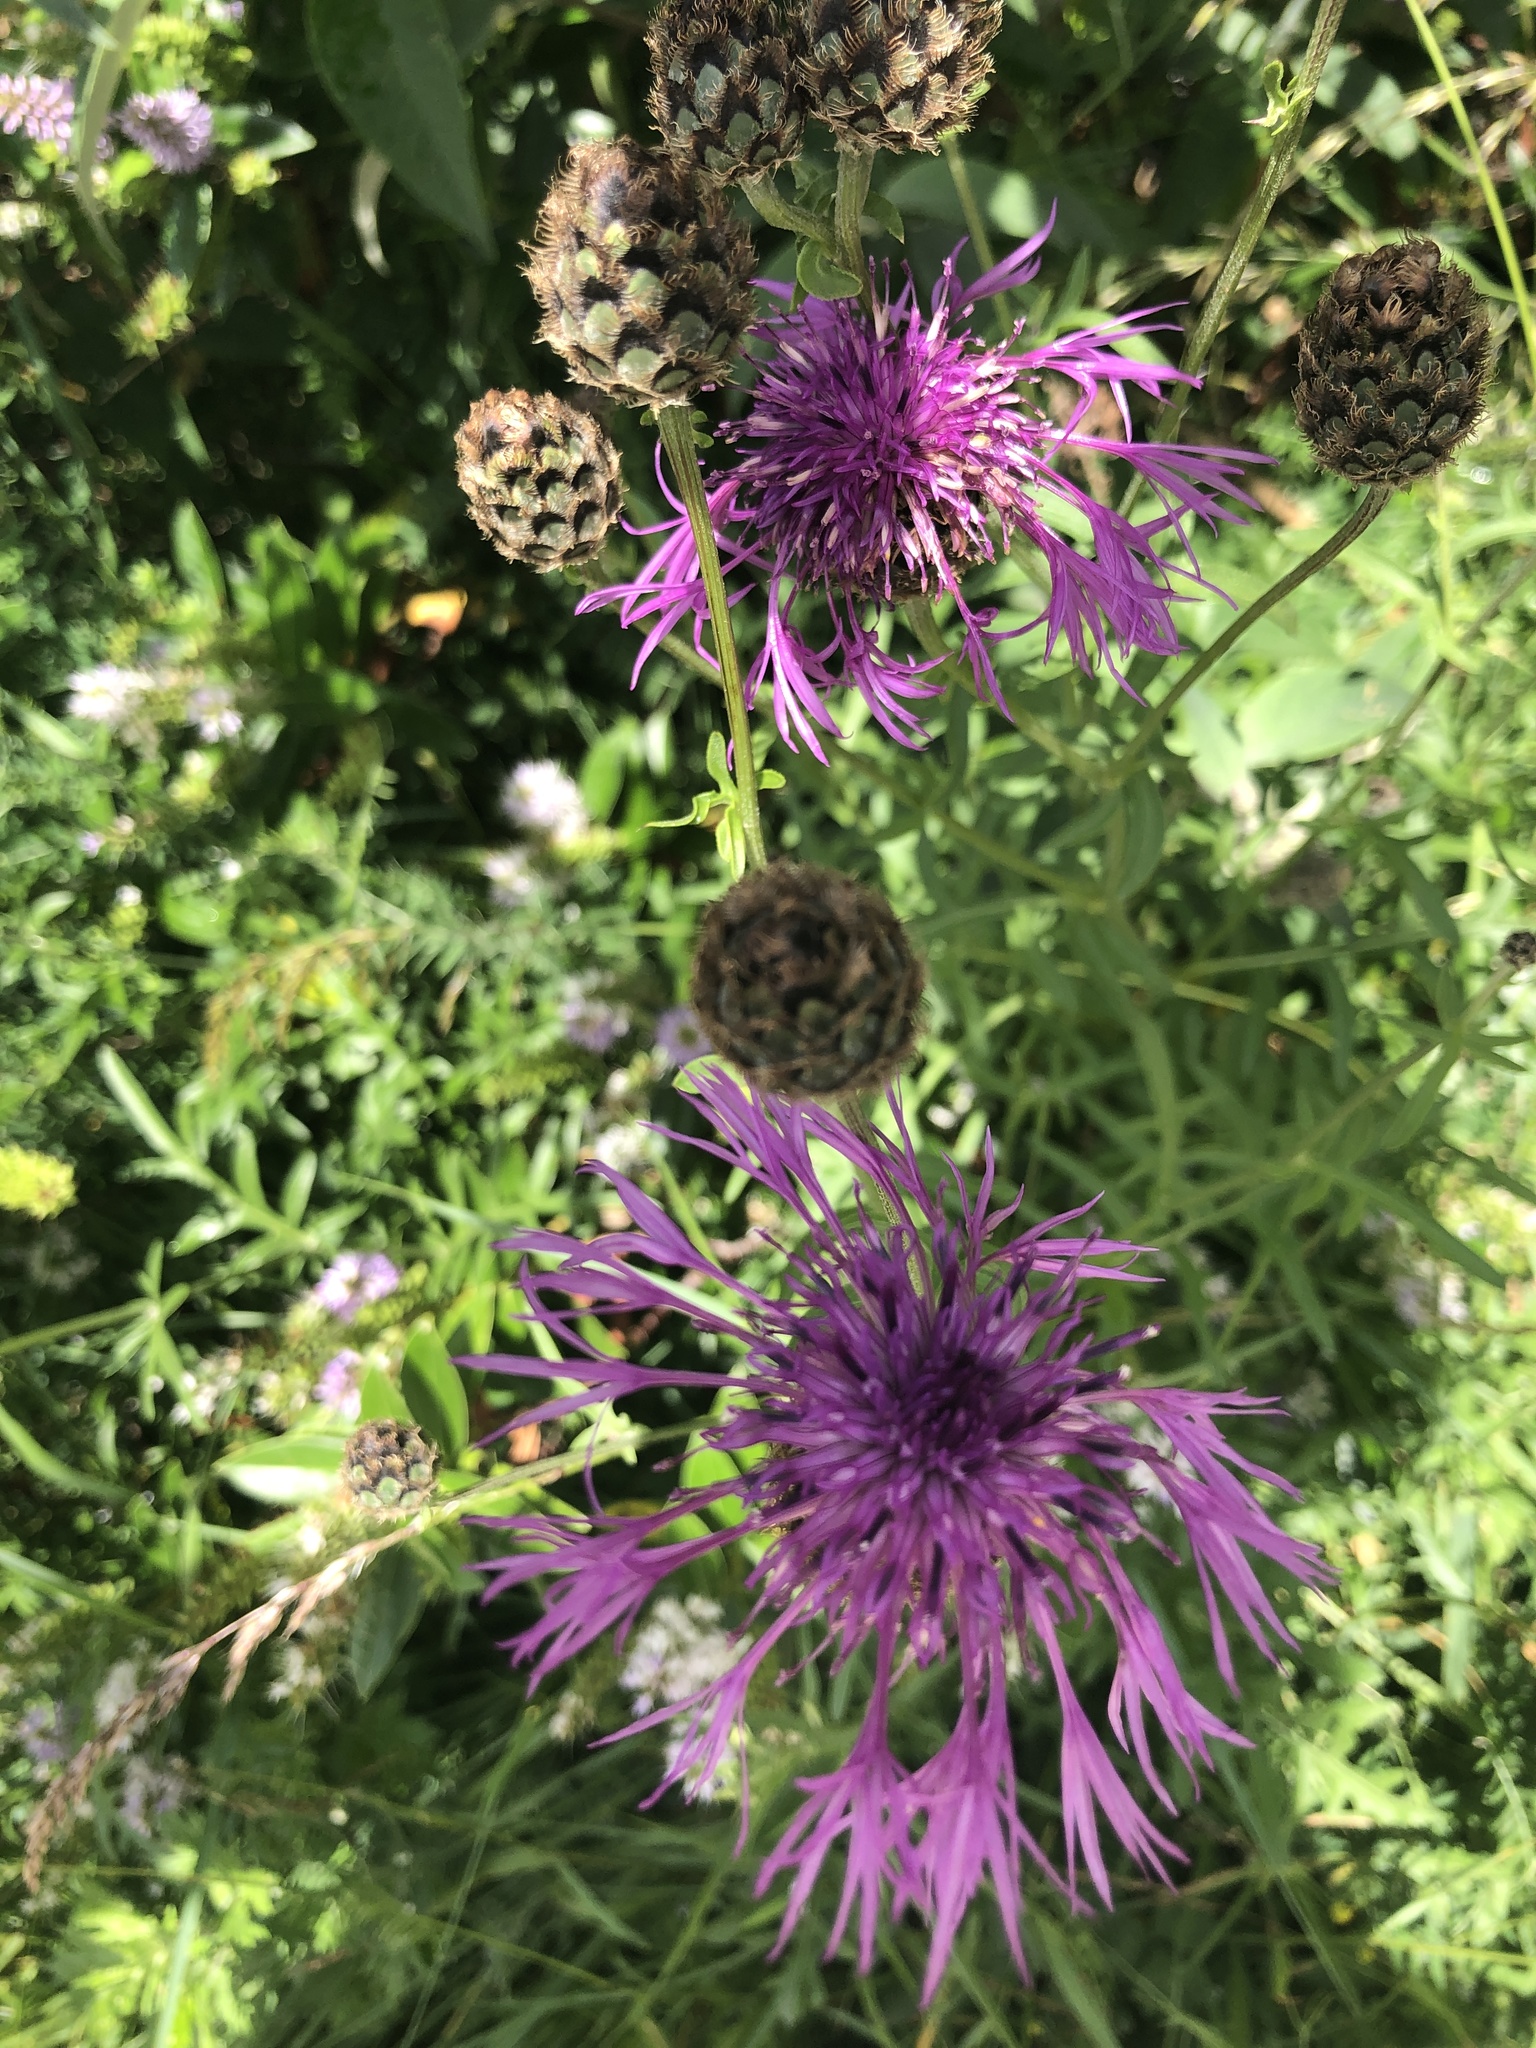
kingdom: Plantae
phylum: Tracheophyta
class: Magnoliopsida
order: Asterales
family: Asteraceae
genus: Centaurea
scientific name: Centaurea scabiosa
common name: Greater knapweed
